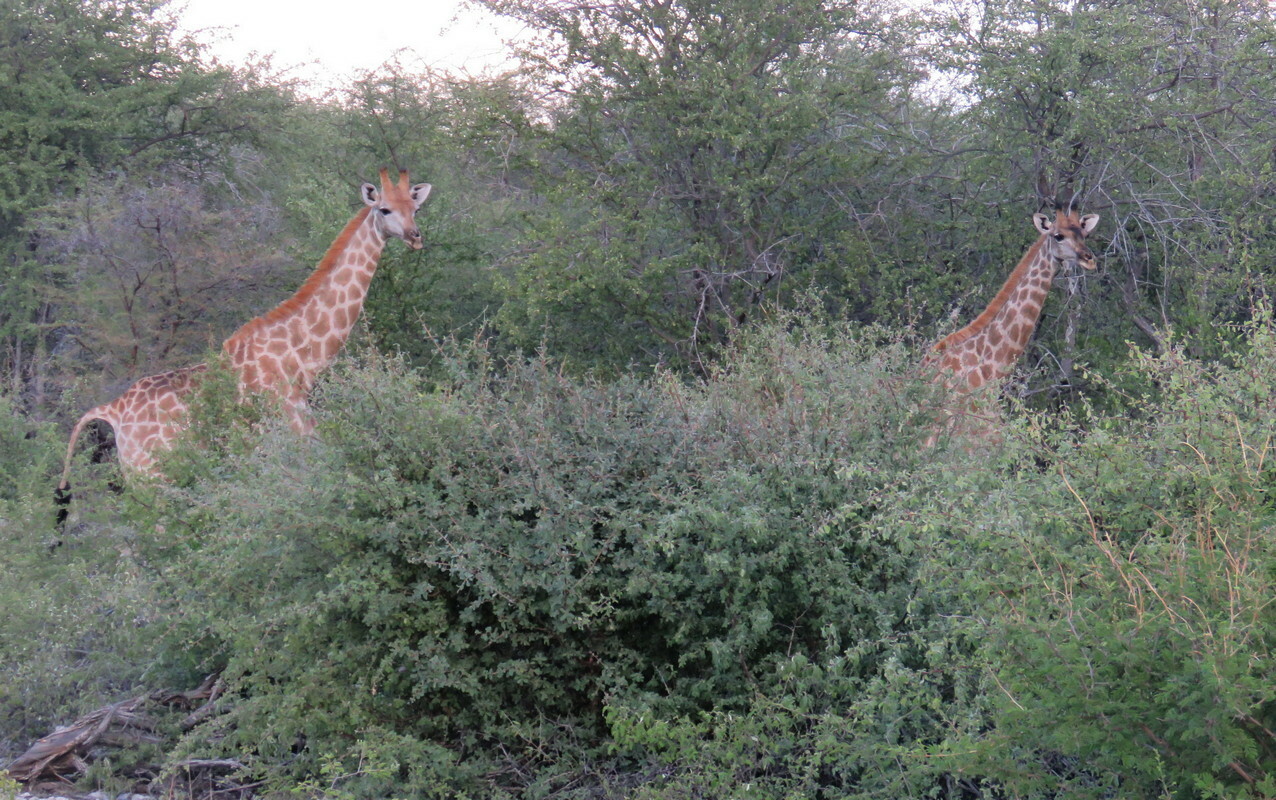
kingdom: Animalia
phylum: Chordata
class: Mammalia
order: Artiodactyla
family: Giraffidae
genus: Giraffa
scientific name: Giraffa giraffa
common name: Southern giraffe
